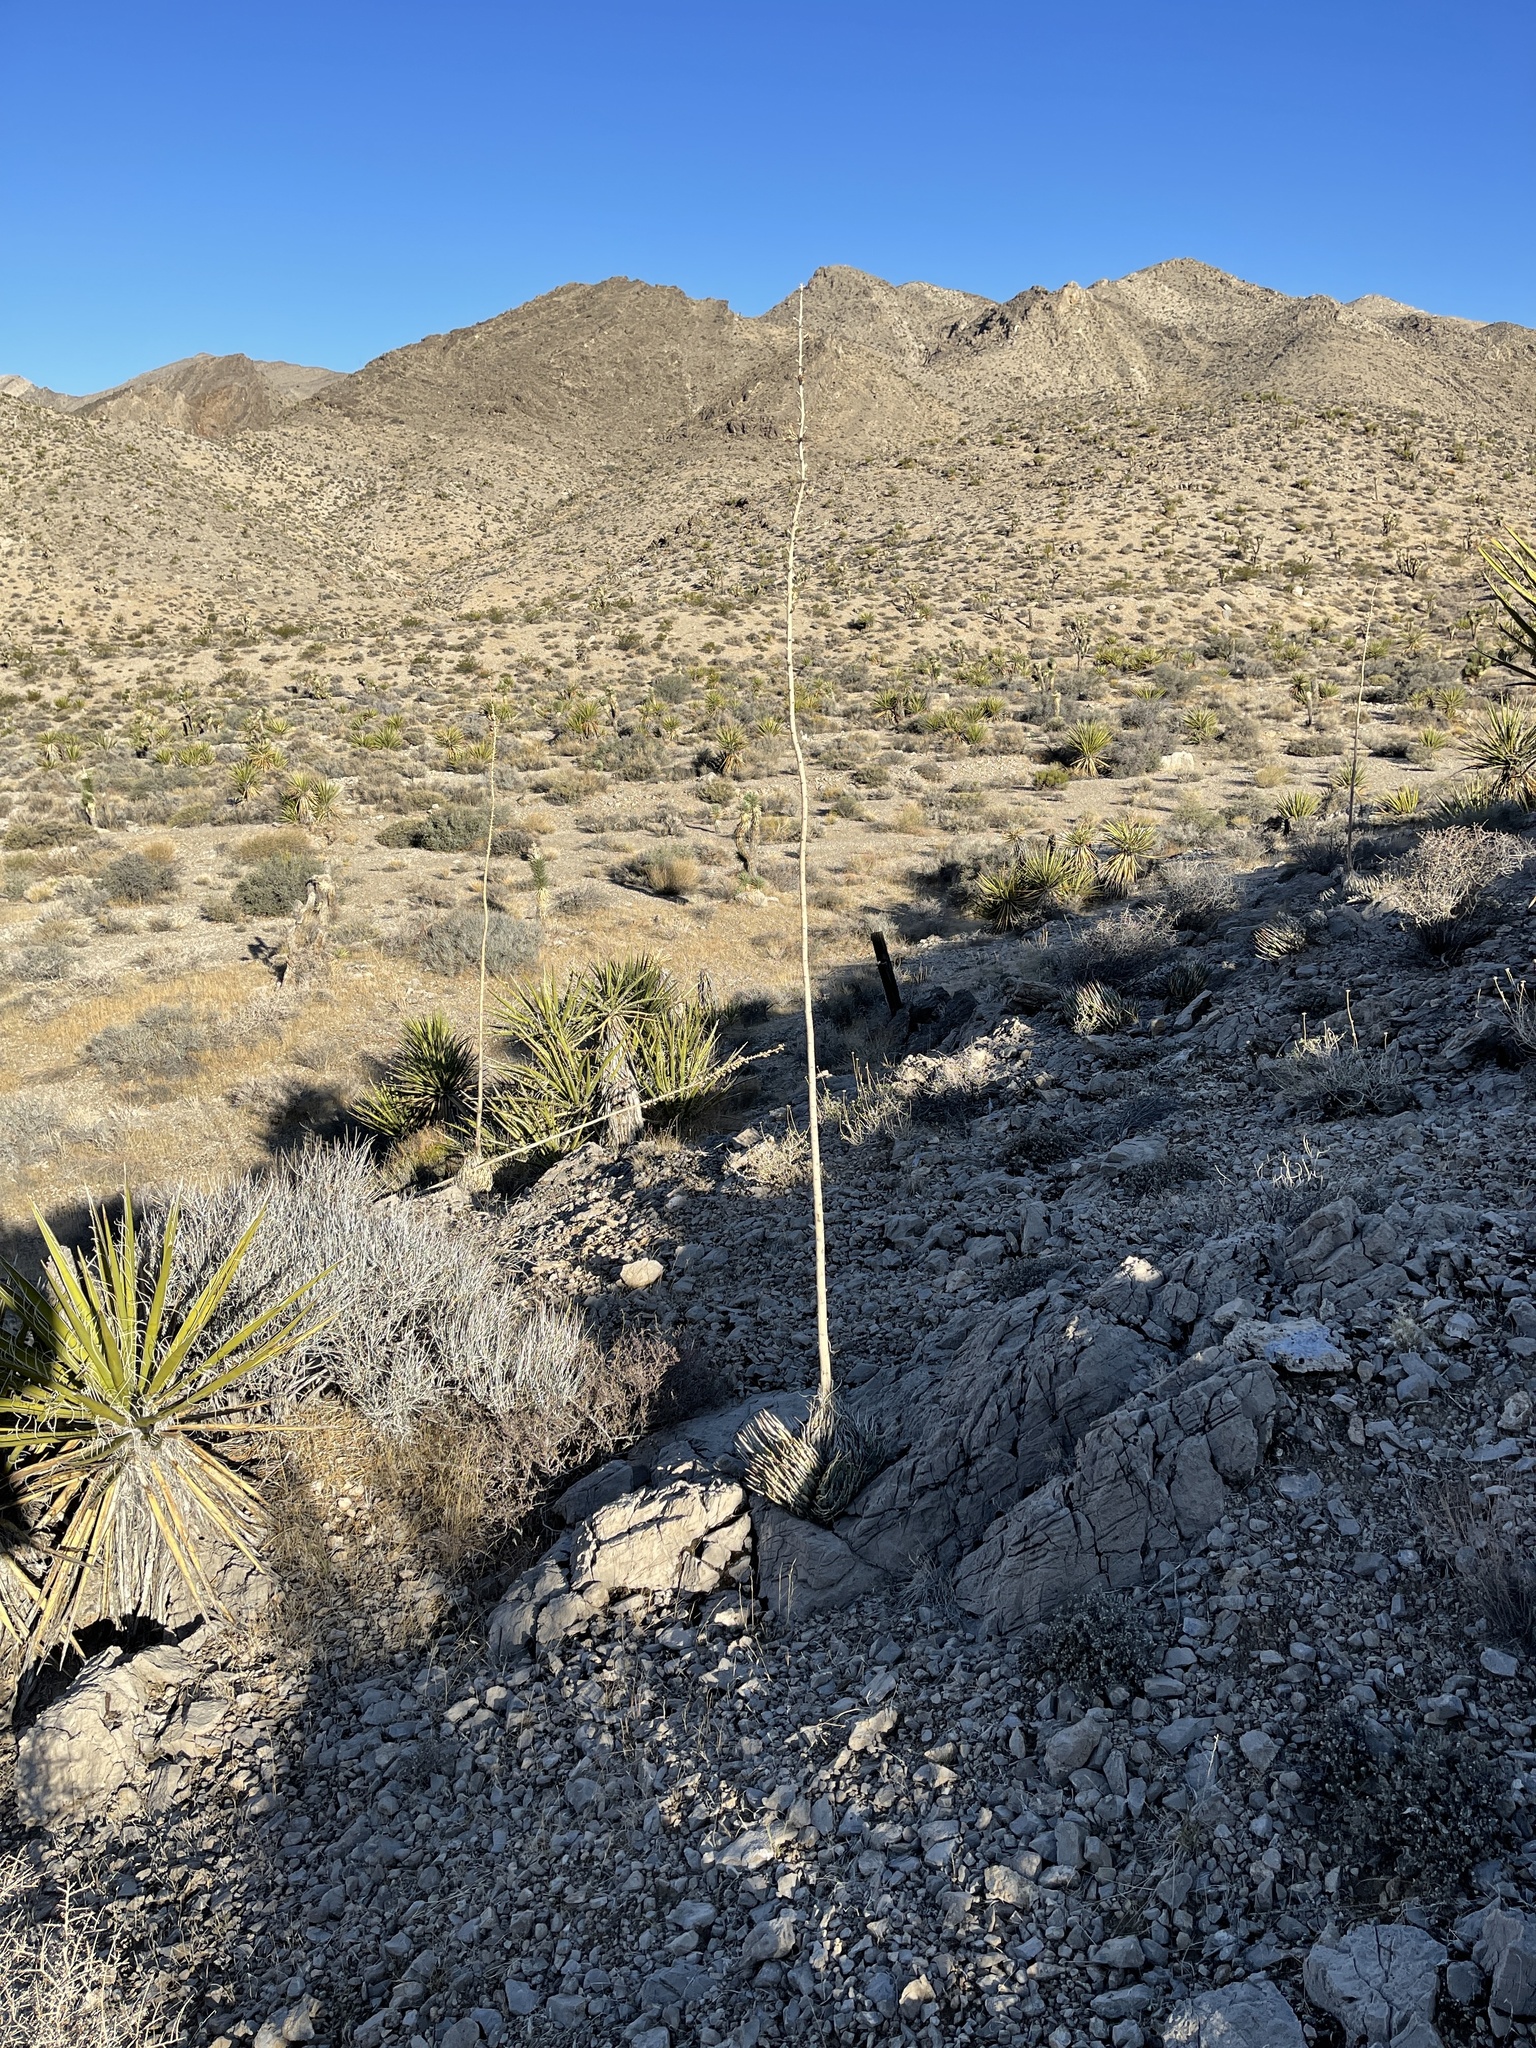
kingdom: Plantae
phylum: Tracheophyta
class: Liliopsida
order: Asparagales
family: Asparagaceae
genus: Agave
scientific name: Agave utahensis
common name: Utah agave
